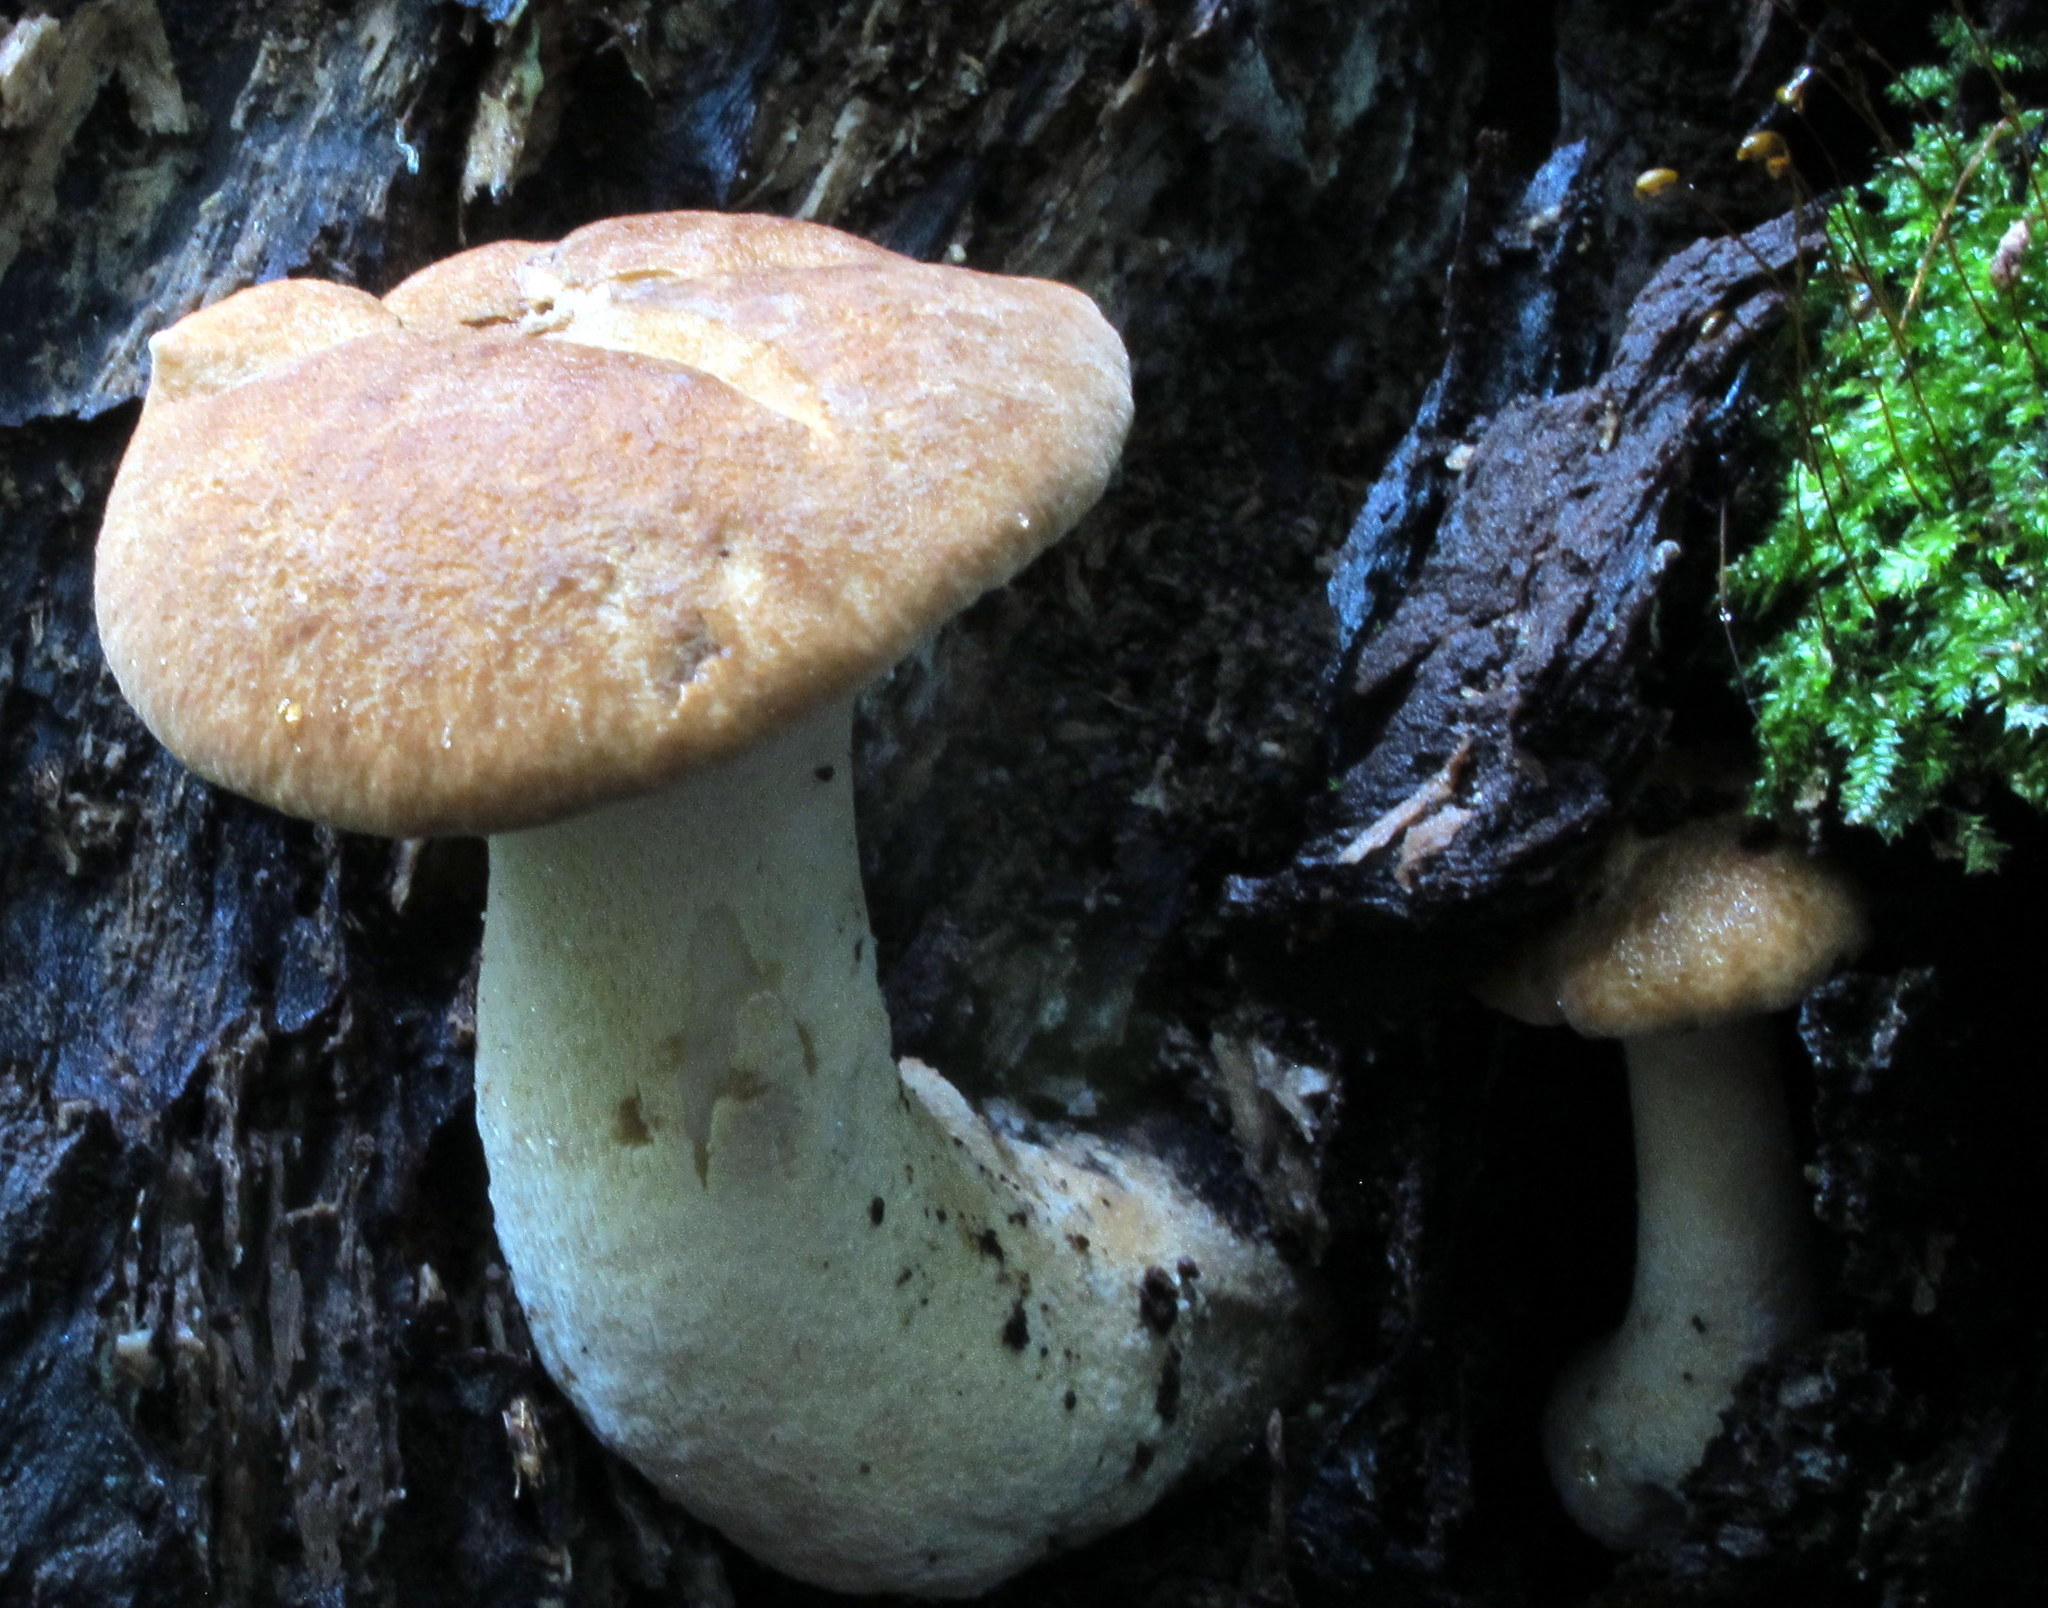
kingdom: Fungi
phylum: Basidiomycota
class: Agaricomycetes
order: Polyporales
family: Polyporaceae
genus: Polyporus
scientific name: Polyporus radicatus
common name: Rooting polypore
